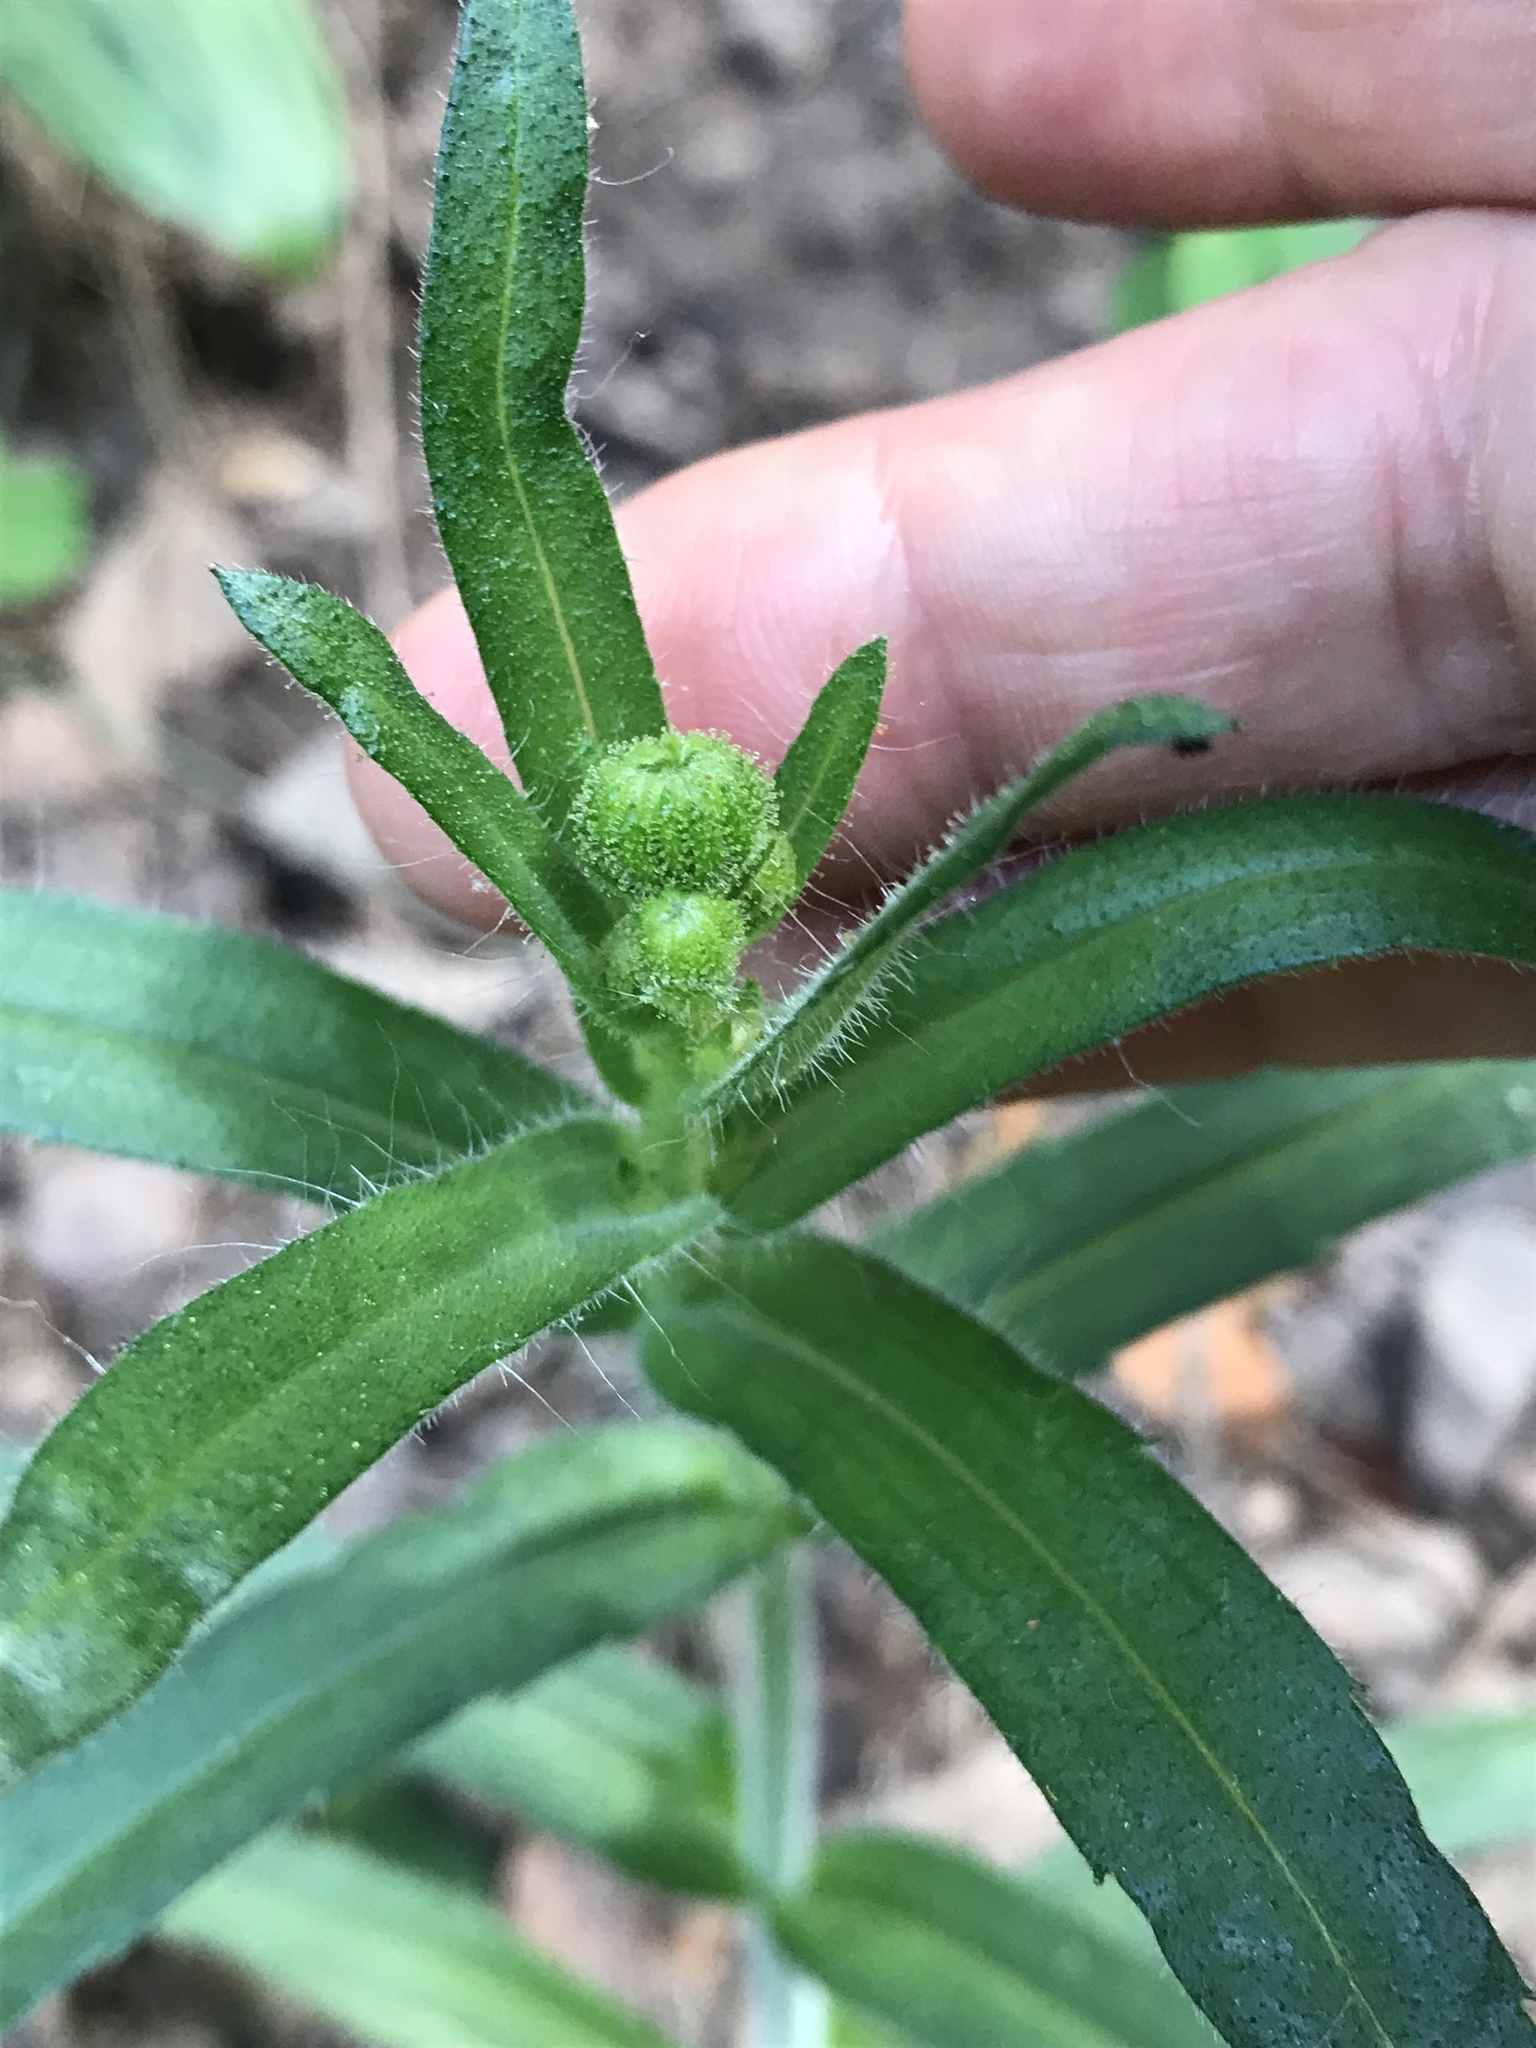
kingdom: Plantae
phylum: Tracheophyta
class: Magnoliopsida
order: Asterales
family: Asteraceae
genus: Anisocarpus
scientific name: Anisocarpus madioides
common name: Woodland madia
